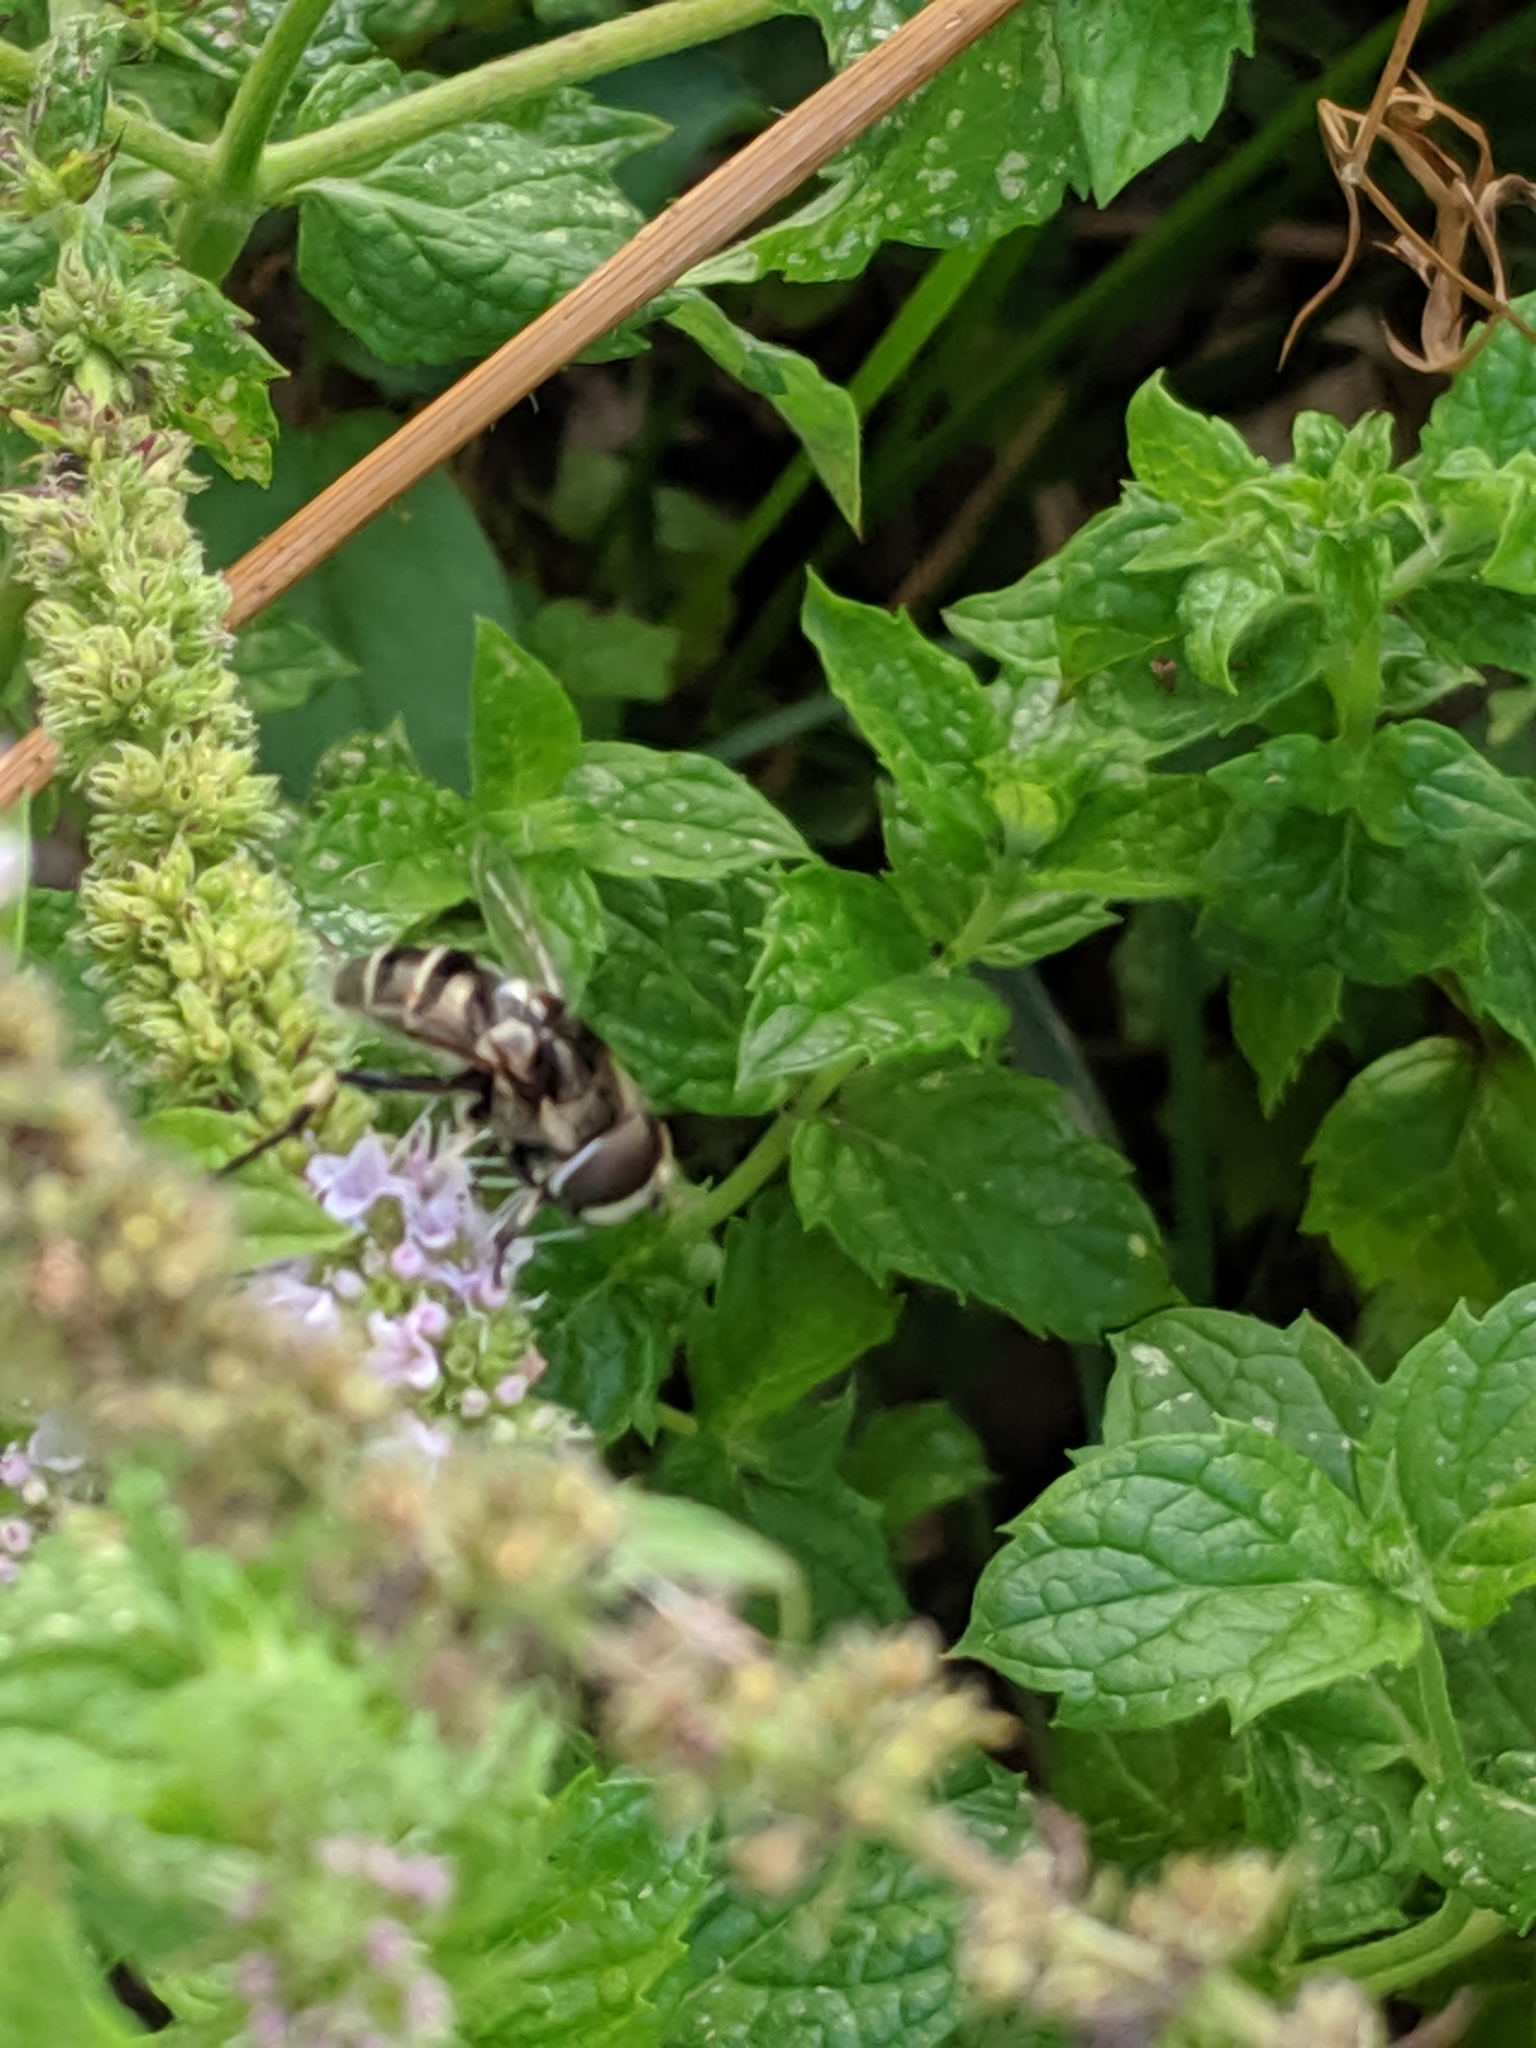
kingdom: Animalia
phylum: Arthropoda
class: Insecta
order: Diptera
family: Syrphidae
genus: Eristalis
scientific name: Eristalis dimidiata
